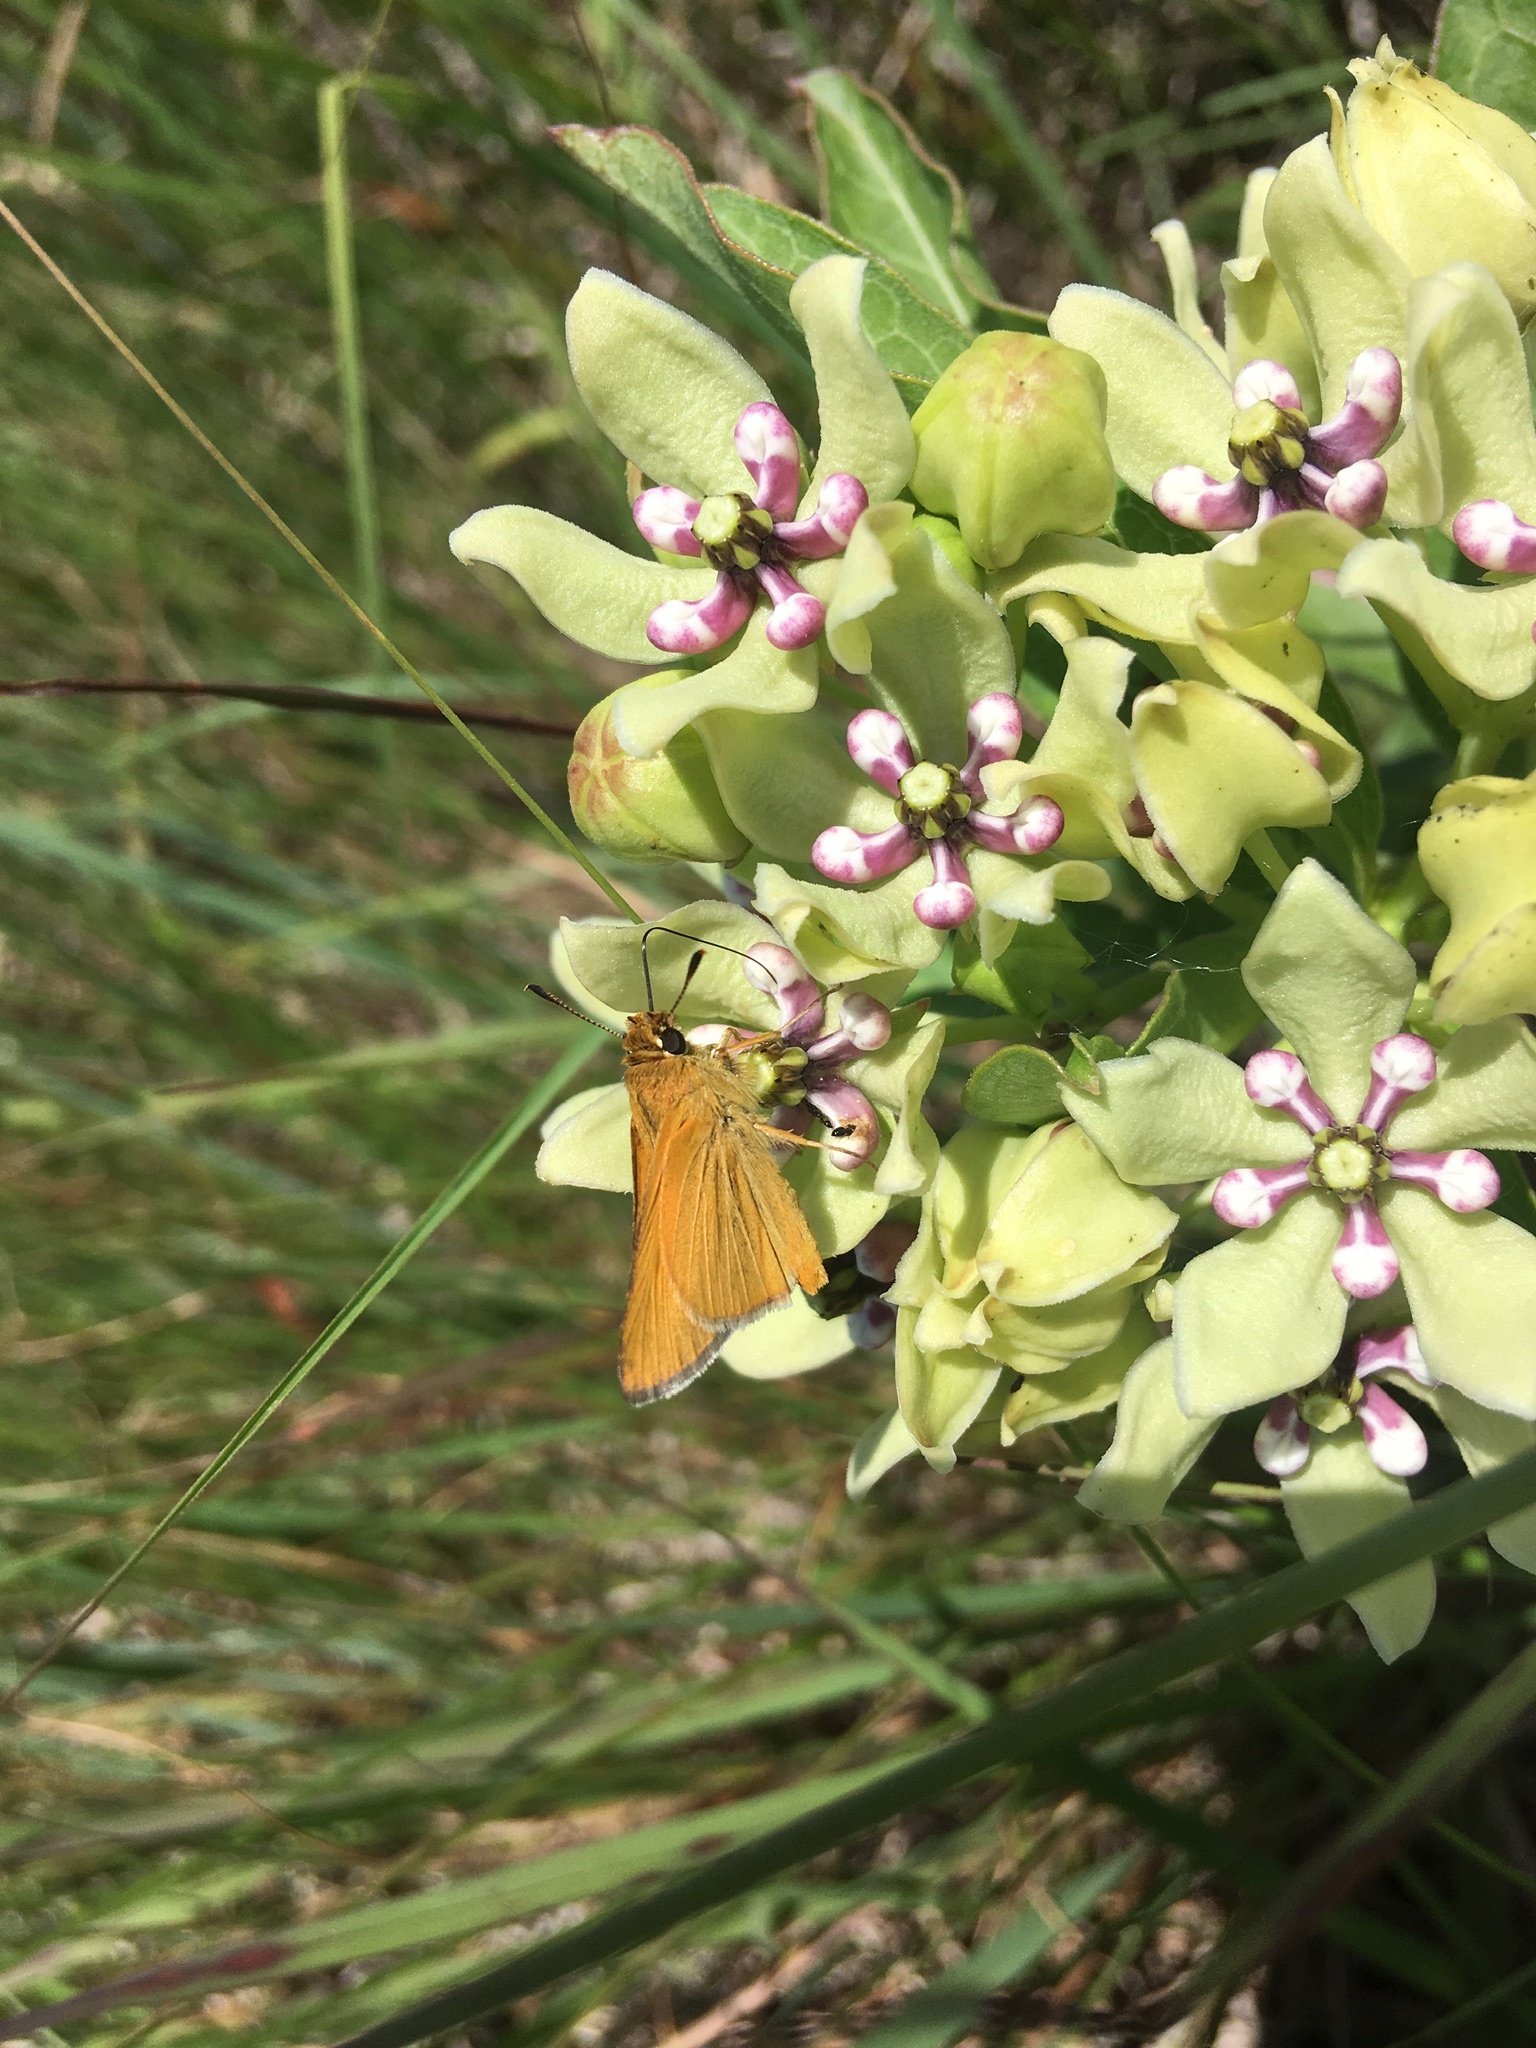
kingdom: Animalia
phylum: Arthropoda
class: Insecta
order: Lepidoptera
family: Hesperiidae
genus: Atrytone
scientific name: Atrytone arogos
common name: Arogos skipper
